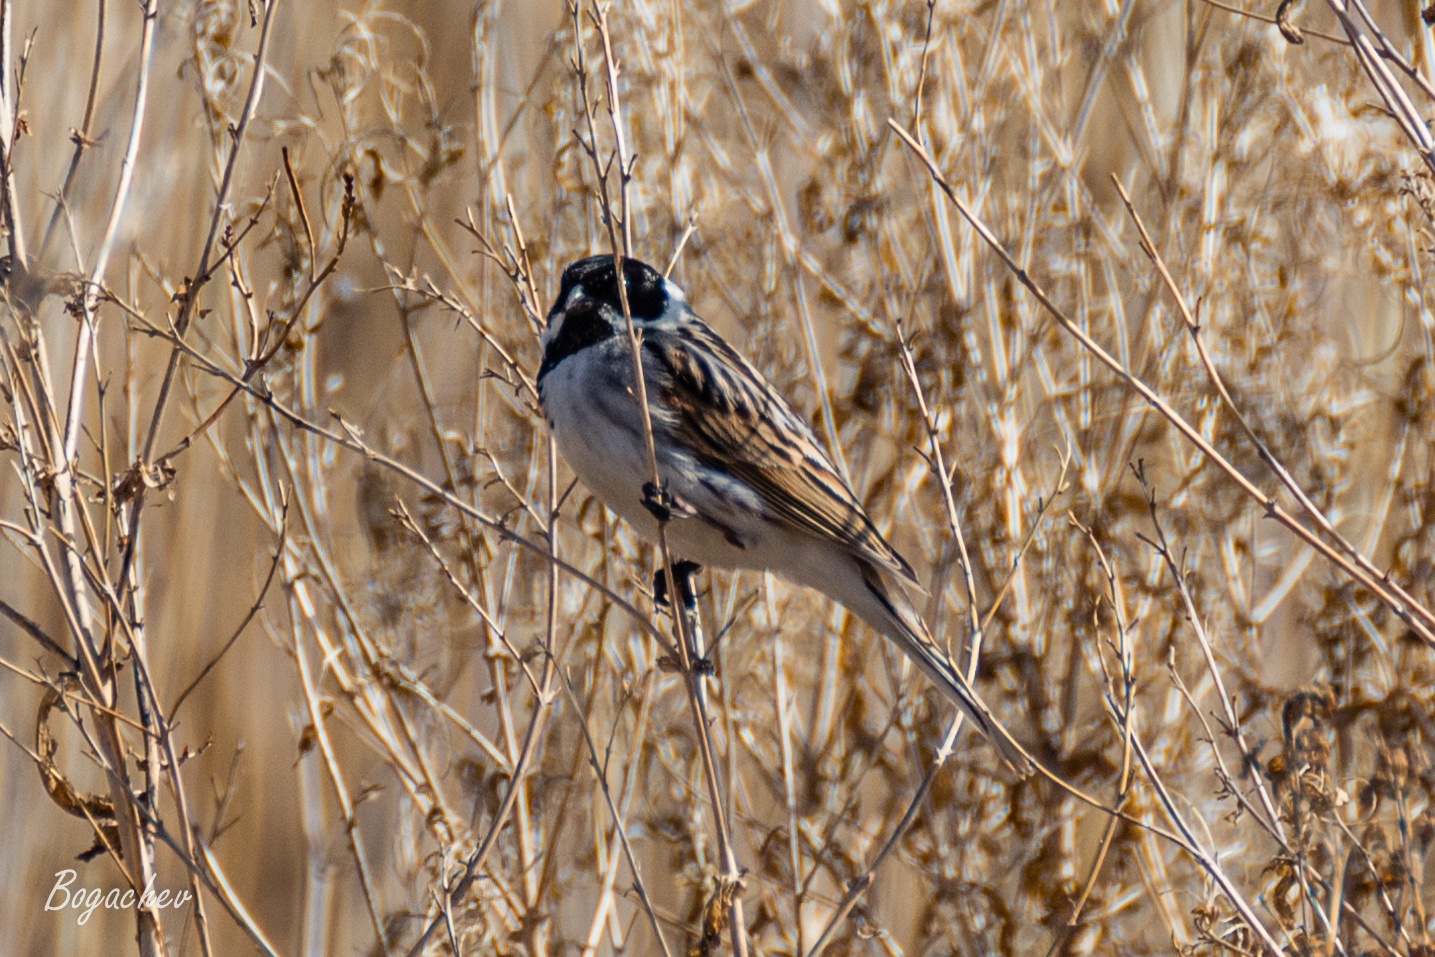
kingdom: Animalia
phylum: Chordata
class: Aves
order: Passeriformes
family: Emberizidae
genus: Emberiza
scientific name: Emberiza schoeniclus
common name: Reed bunting
